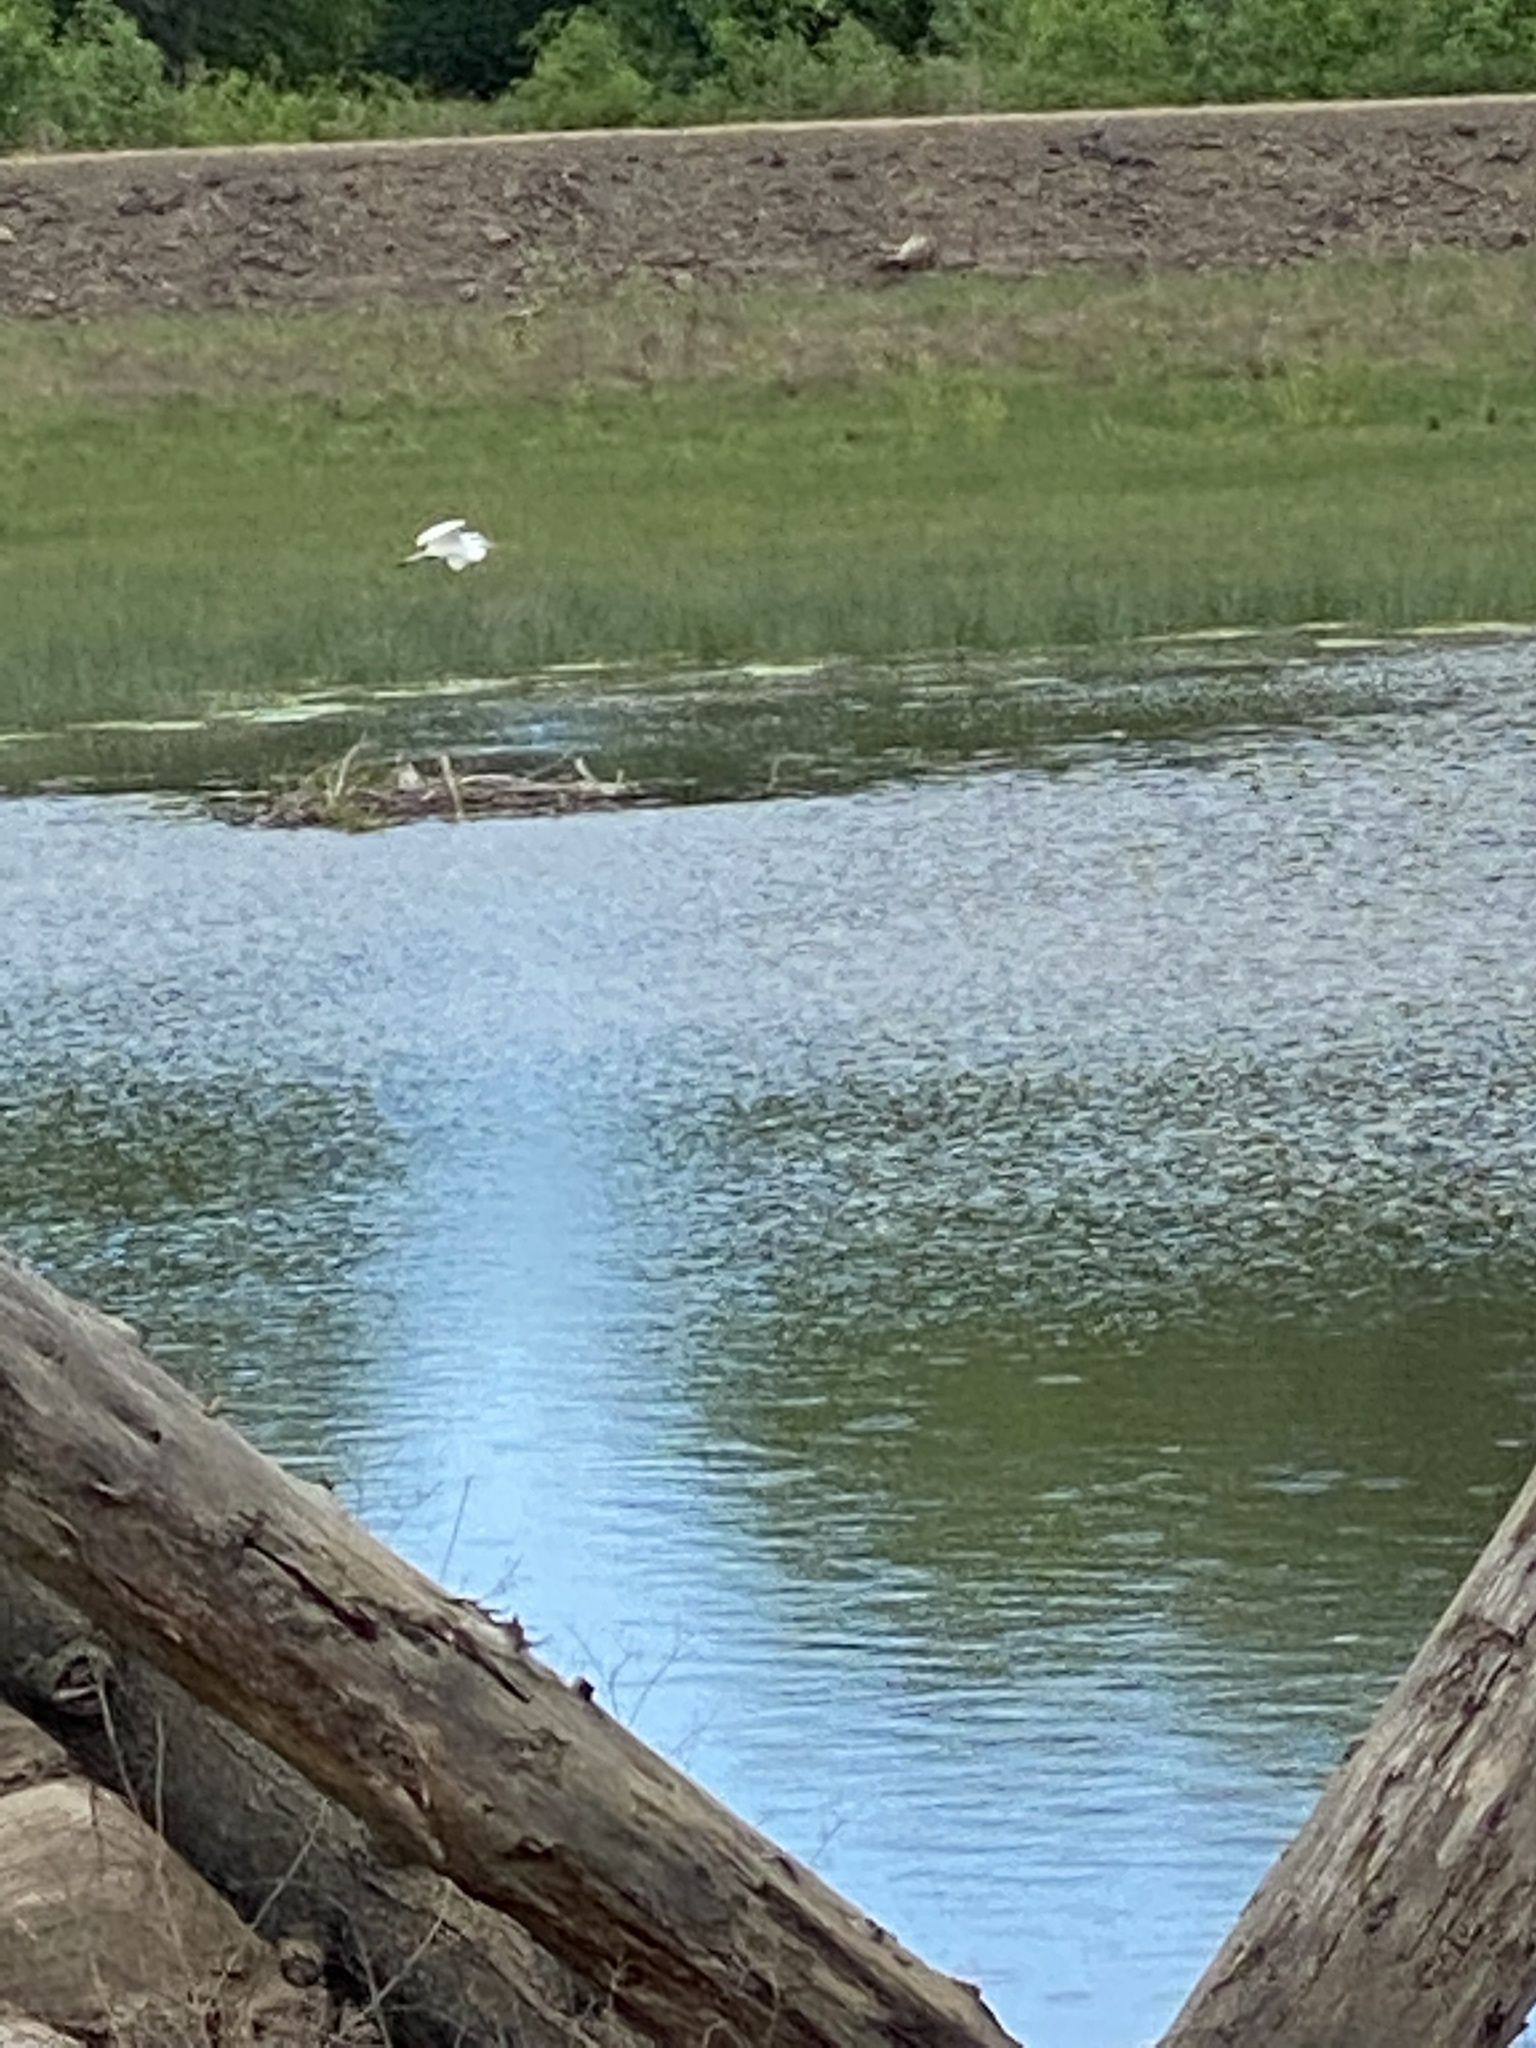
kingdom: Animalia
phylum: Chordata
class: Aves
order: Pelecaniformes
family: Ardeidae
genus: Ardea
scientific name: Ardea alba
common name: Great egret
